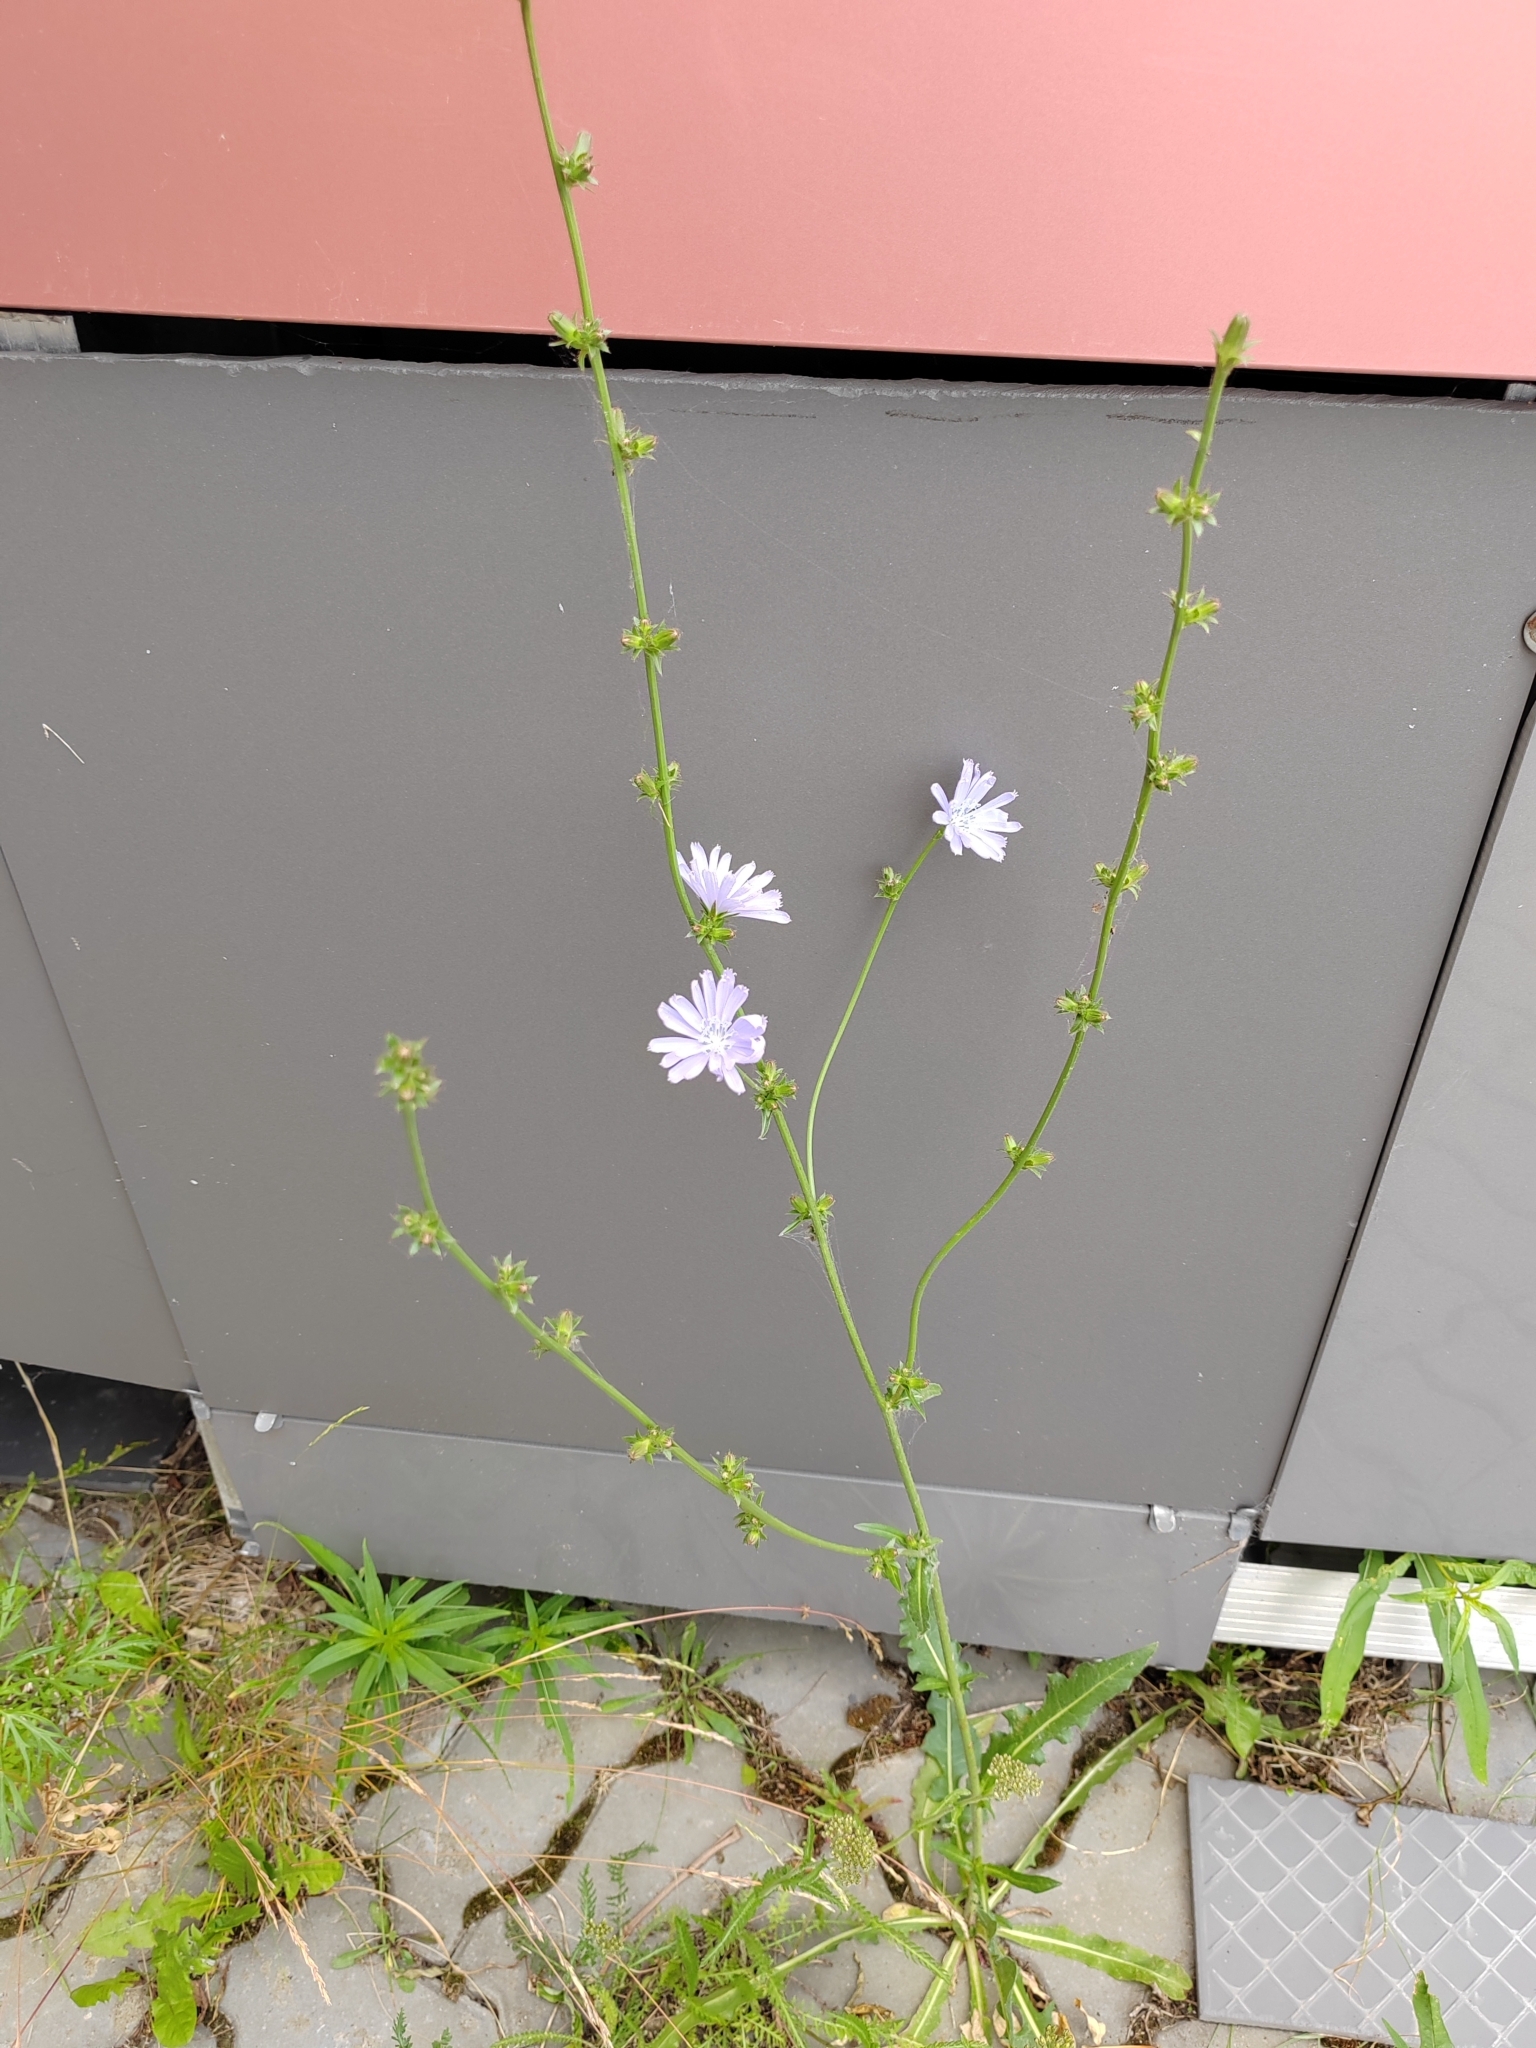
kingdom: Plantae
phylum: Tracheophyta
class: Magnoliopsida
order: Asterales
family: Asteraceae
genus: Cichorium
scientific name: Cichorium intybus
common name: Chicory
